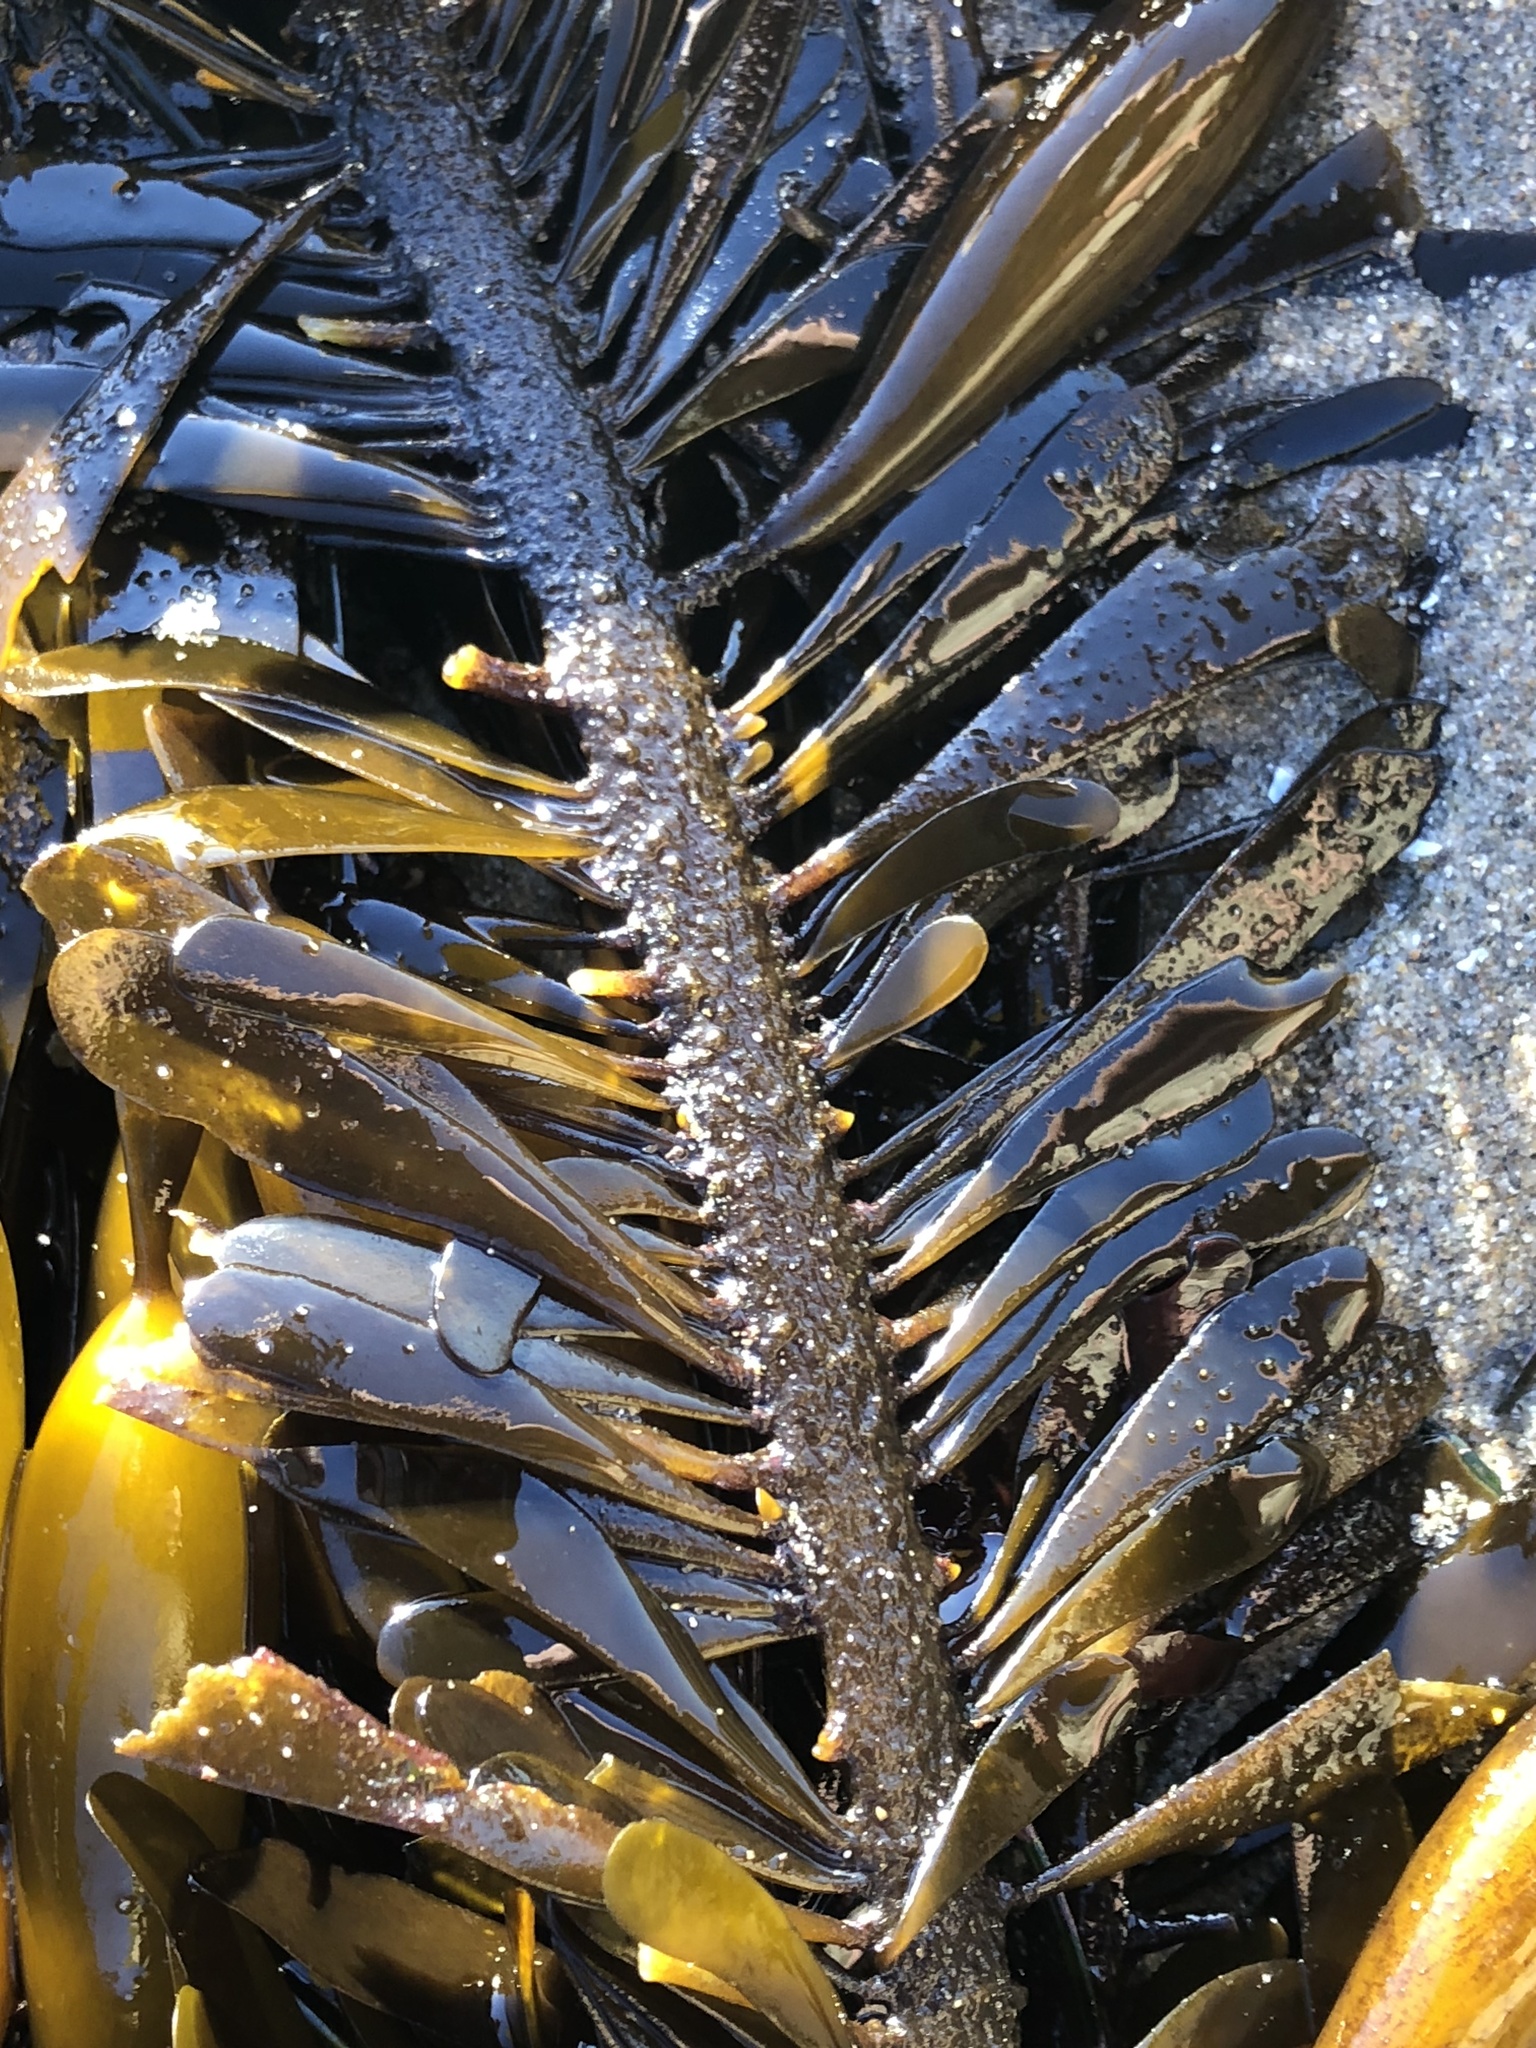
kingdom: Chromista
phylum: Ochrophyta
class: Phaeophyceae
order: Laminariales
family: Lessoniaceae
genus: Egregia
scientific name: Egregia menziesii
